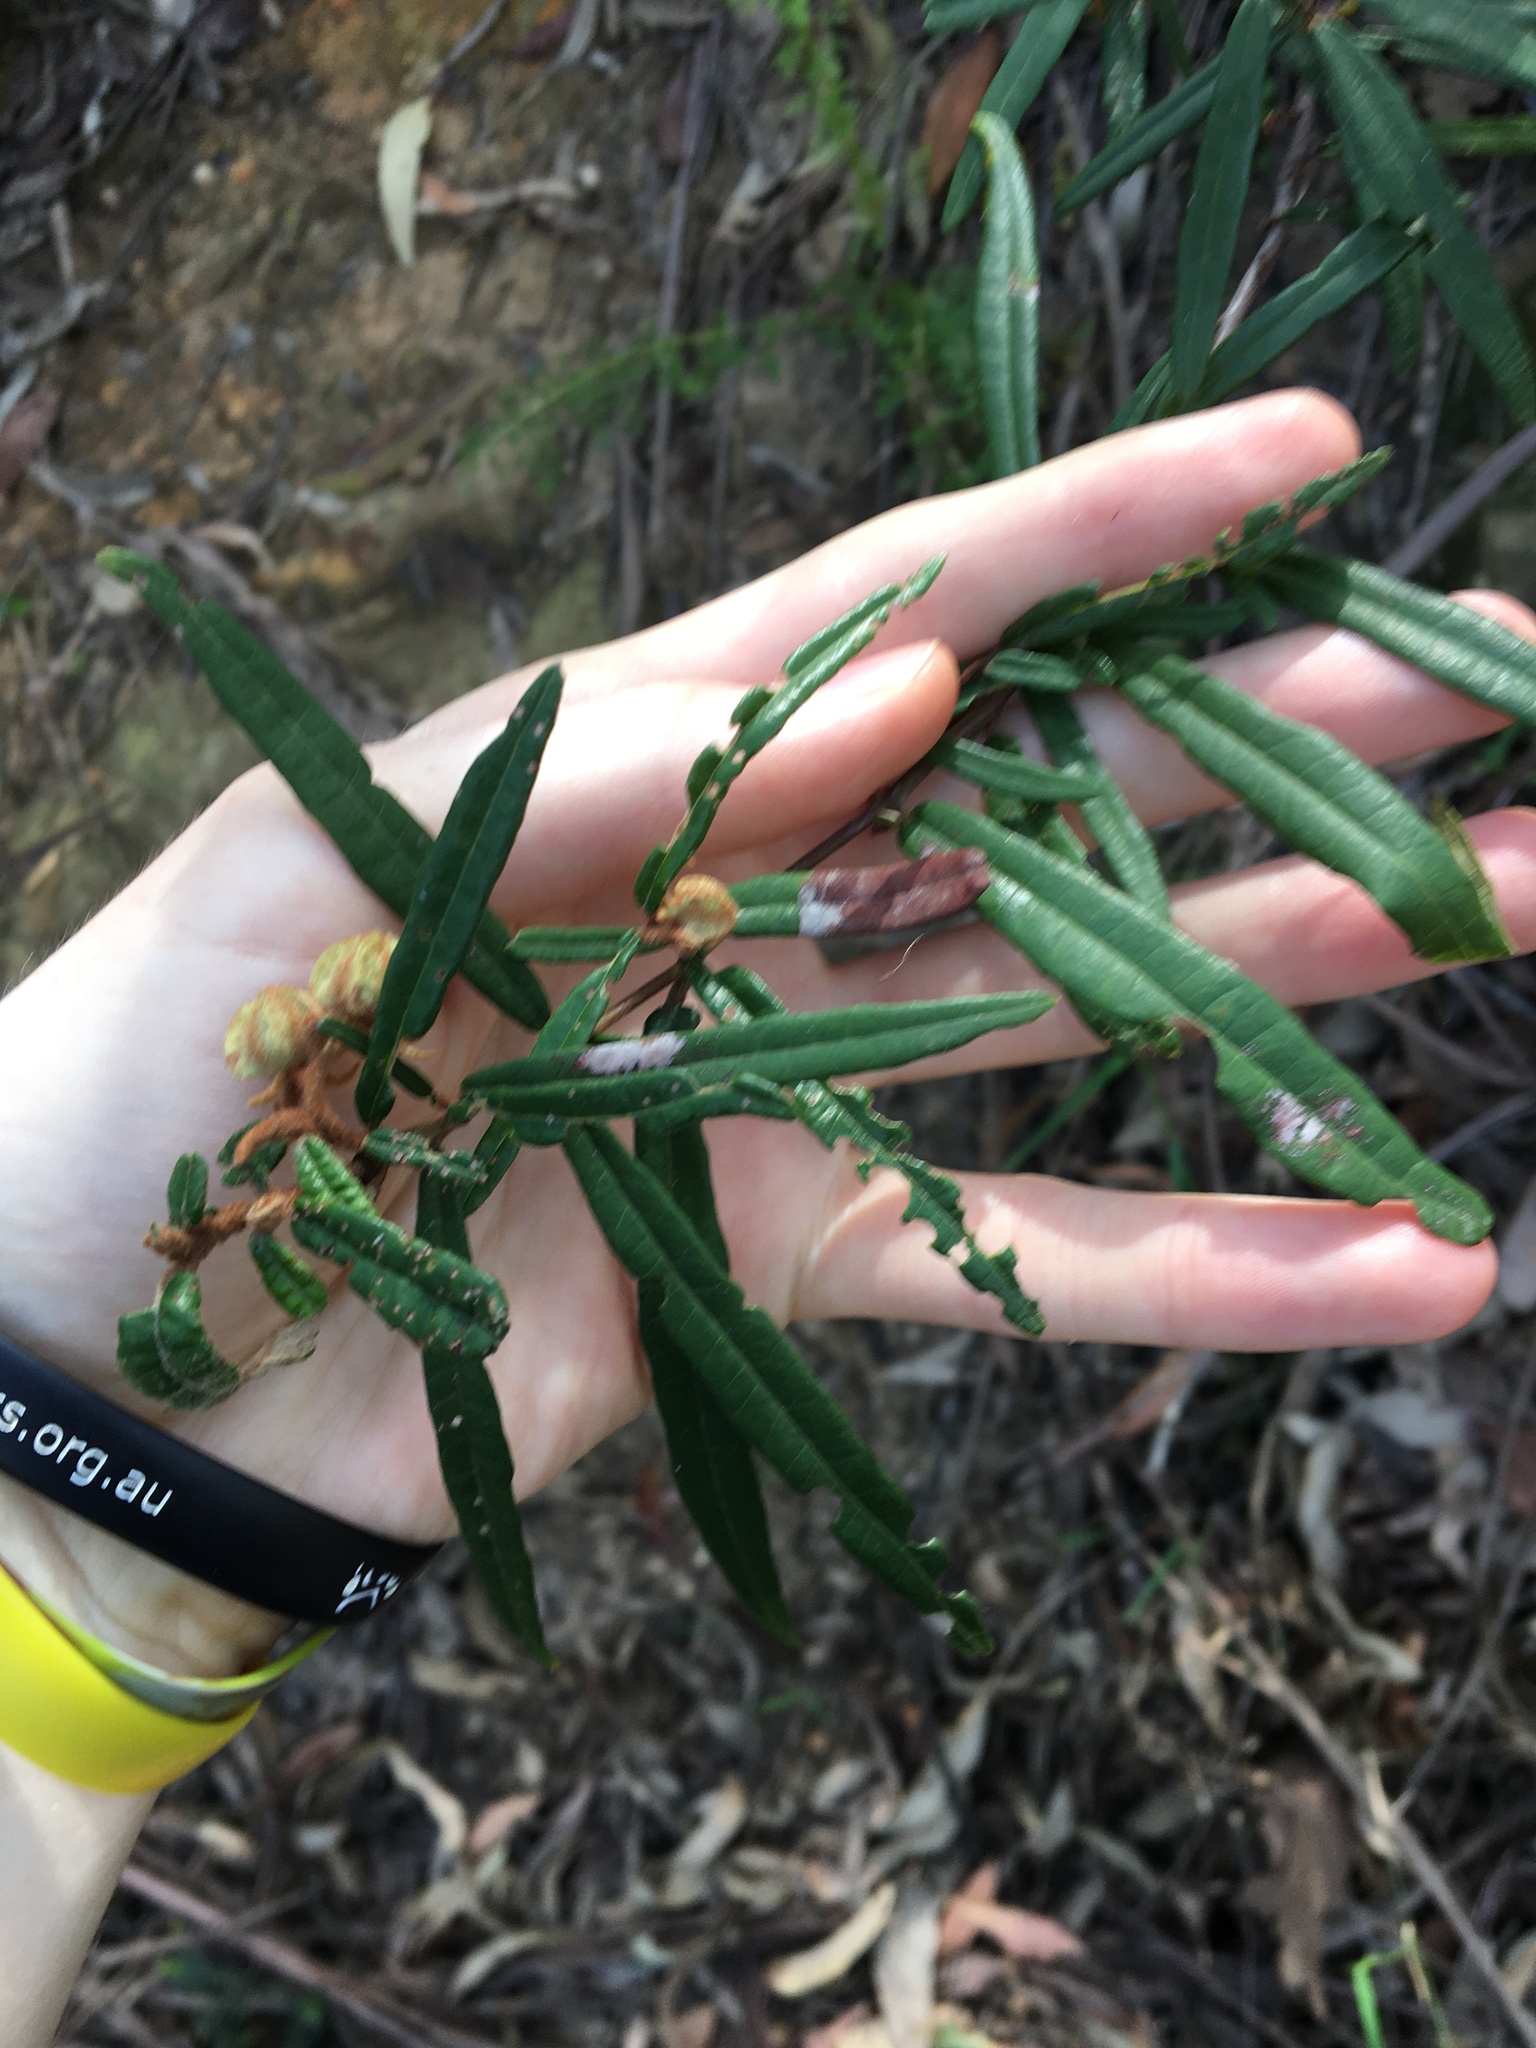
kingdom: Plantae
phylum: Tracheophyta
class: Magnoliopsida
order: Malvales
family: Malvaceae
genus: Lasiopetalum
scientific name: Lasiopetalum ferrugineum
